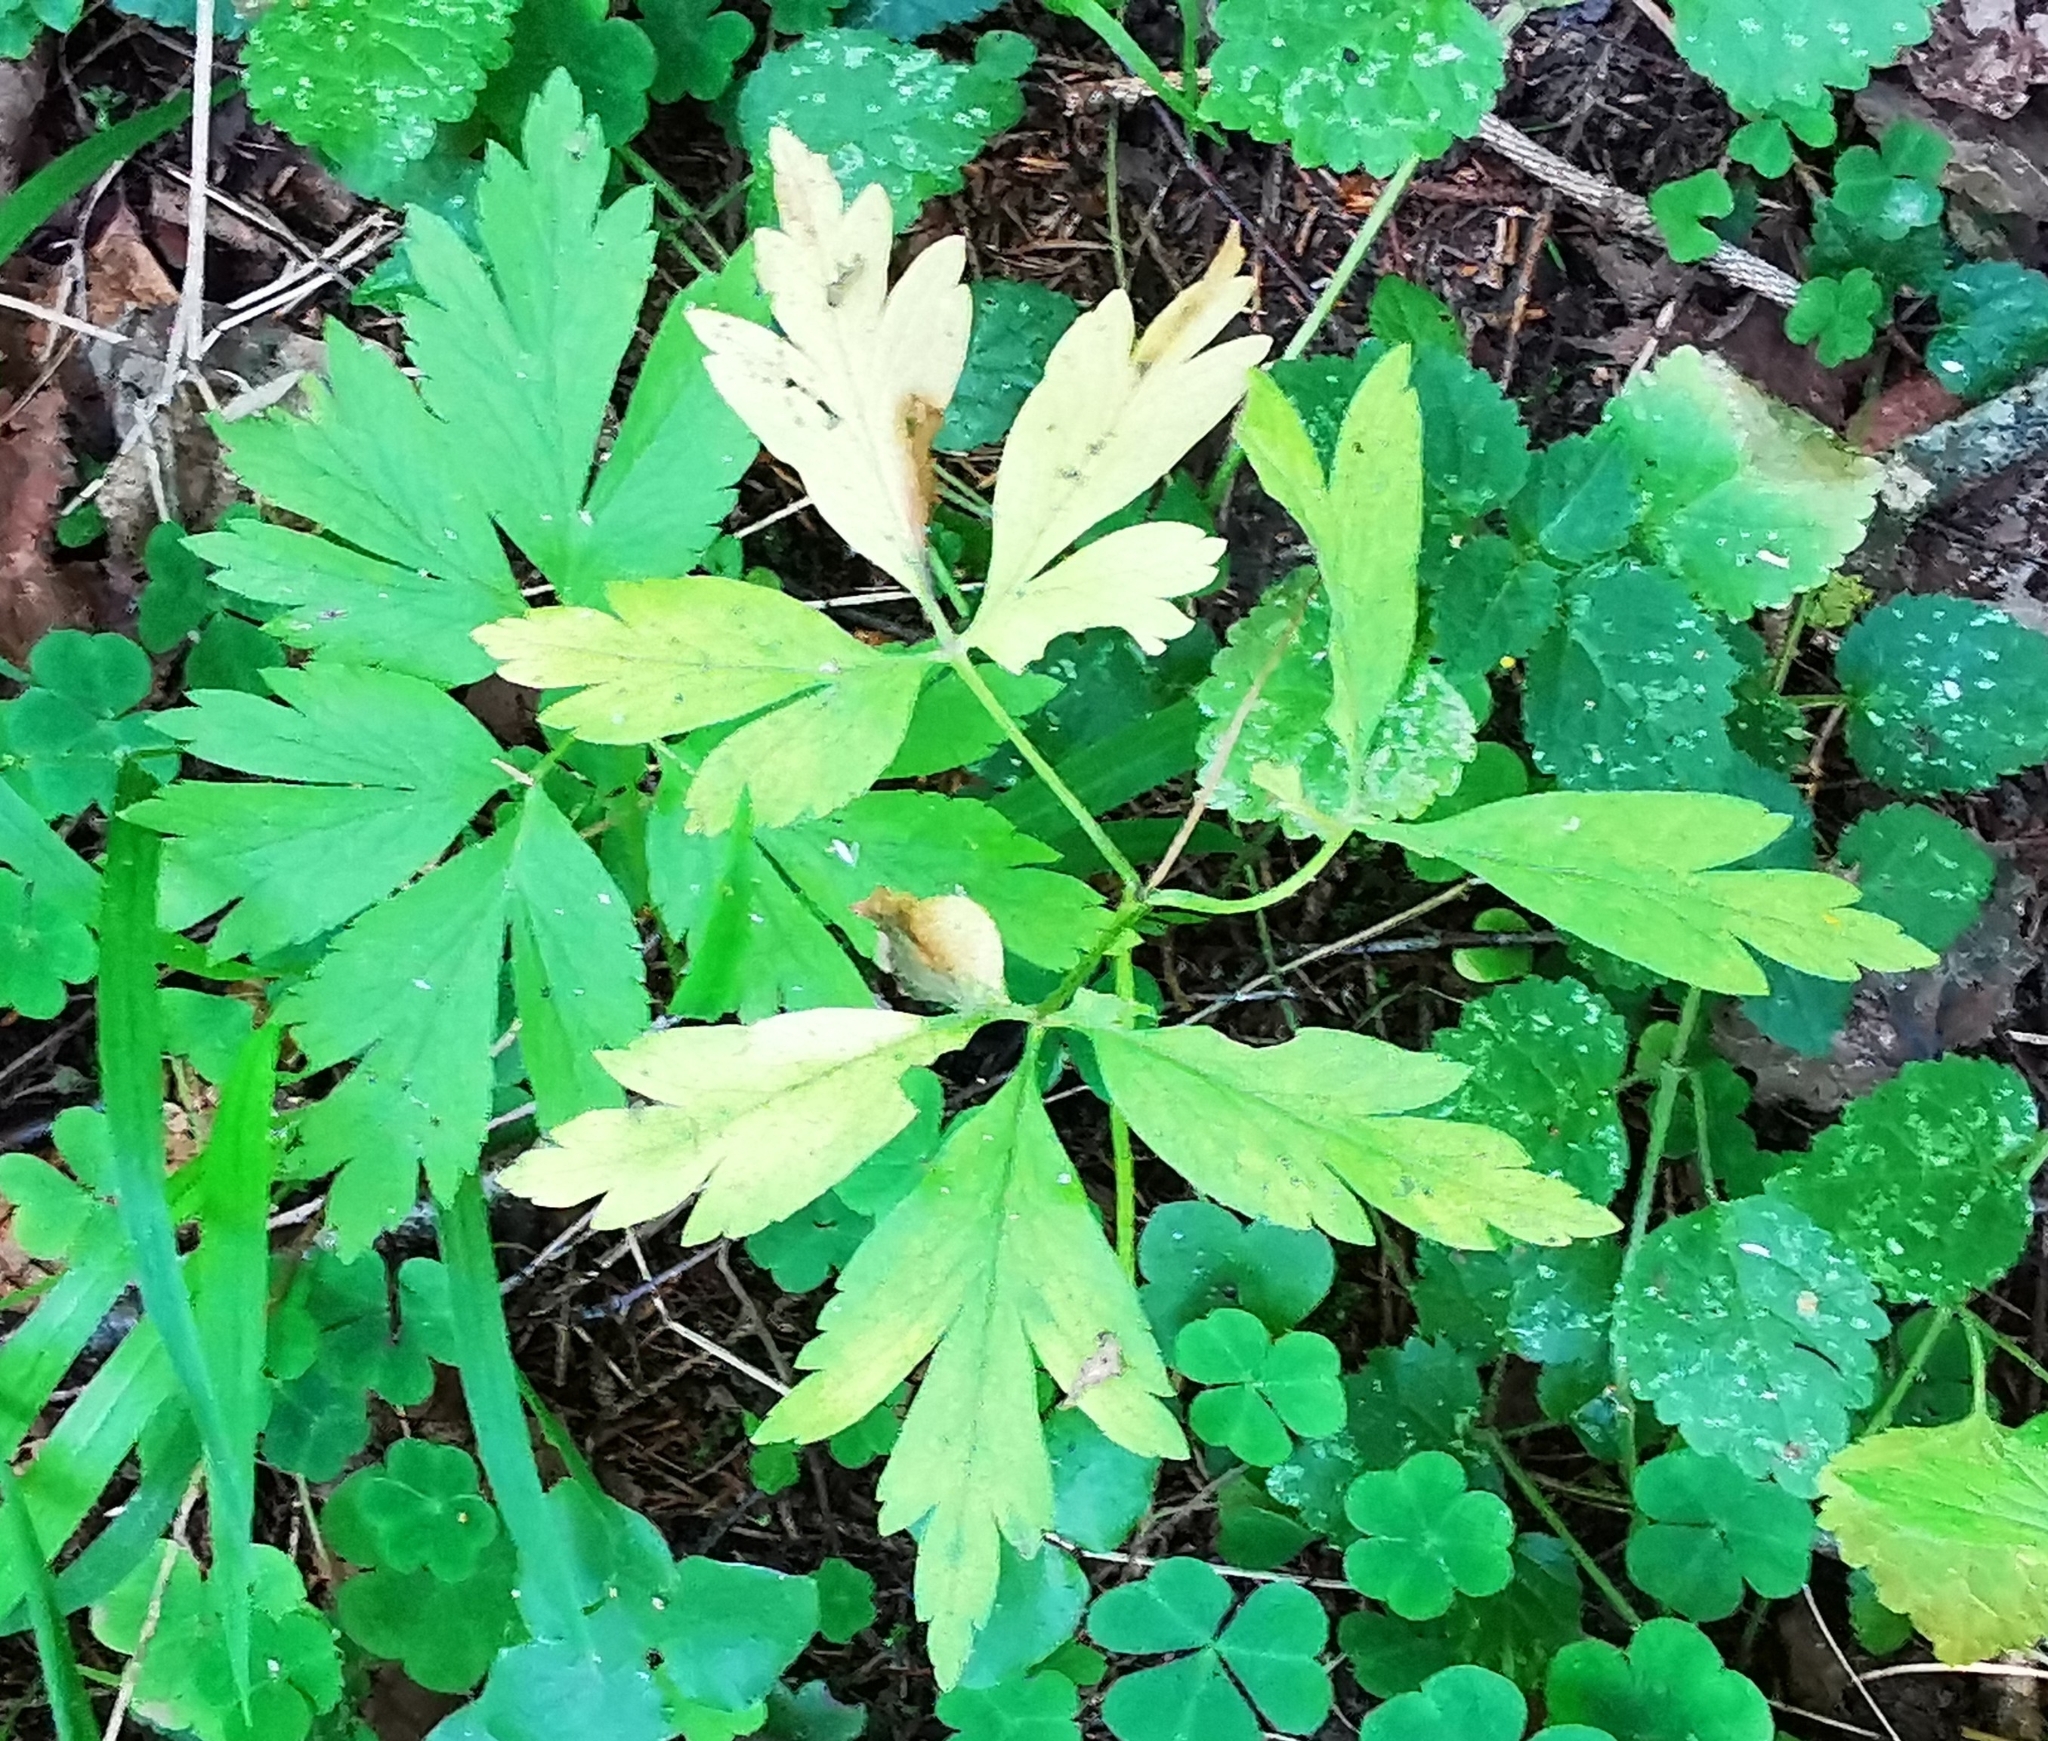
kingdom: Plantae
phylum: Tracheophyta
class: Magnoliopsida
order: Ranunculales
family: Ranunculaceae
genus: Anemone
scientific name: Anemone nemorosa
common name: Wood anemone
